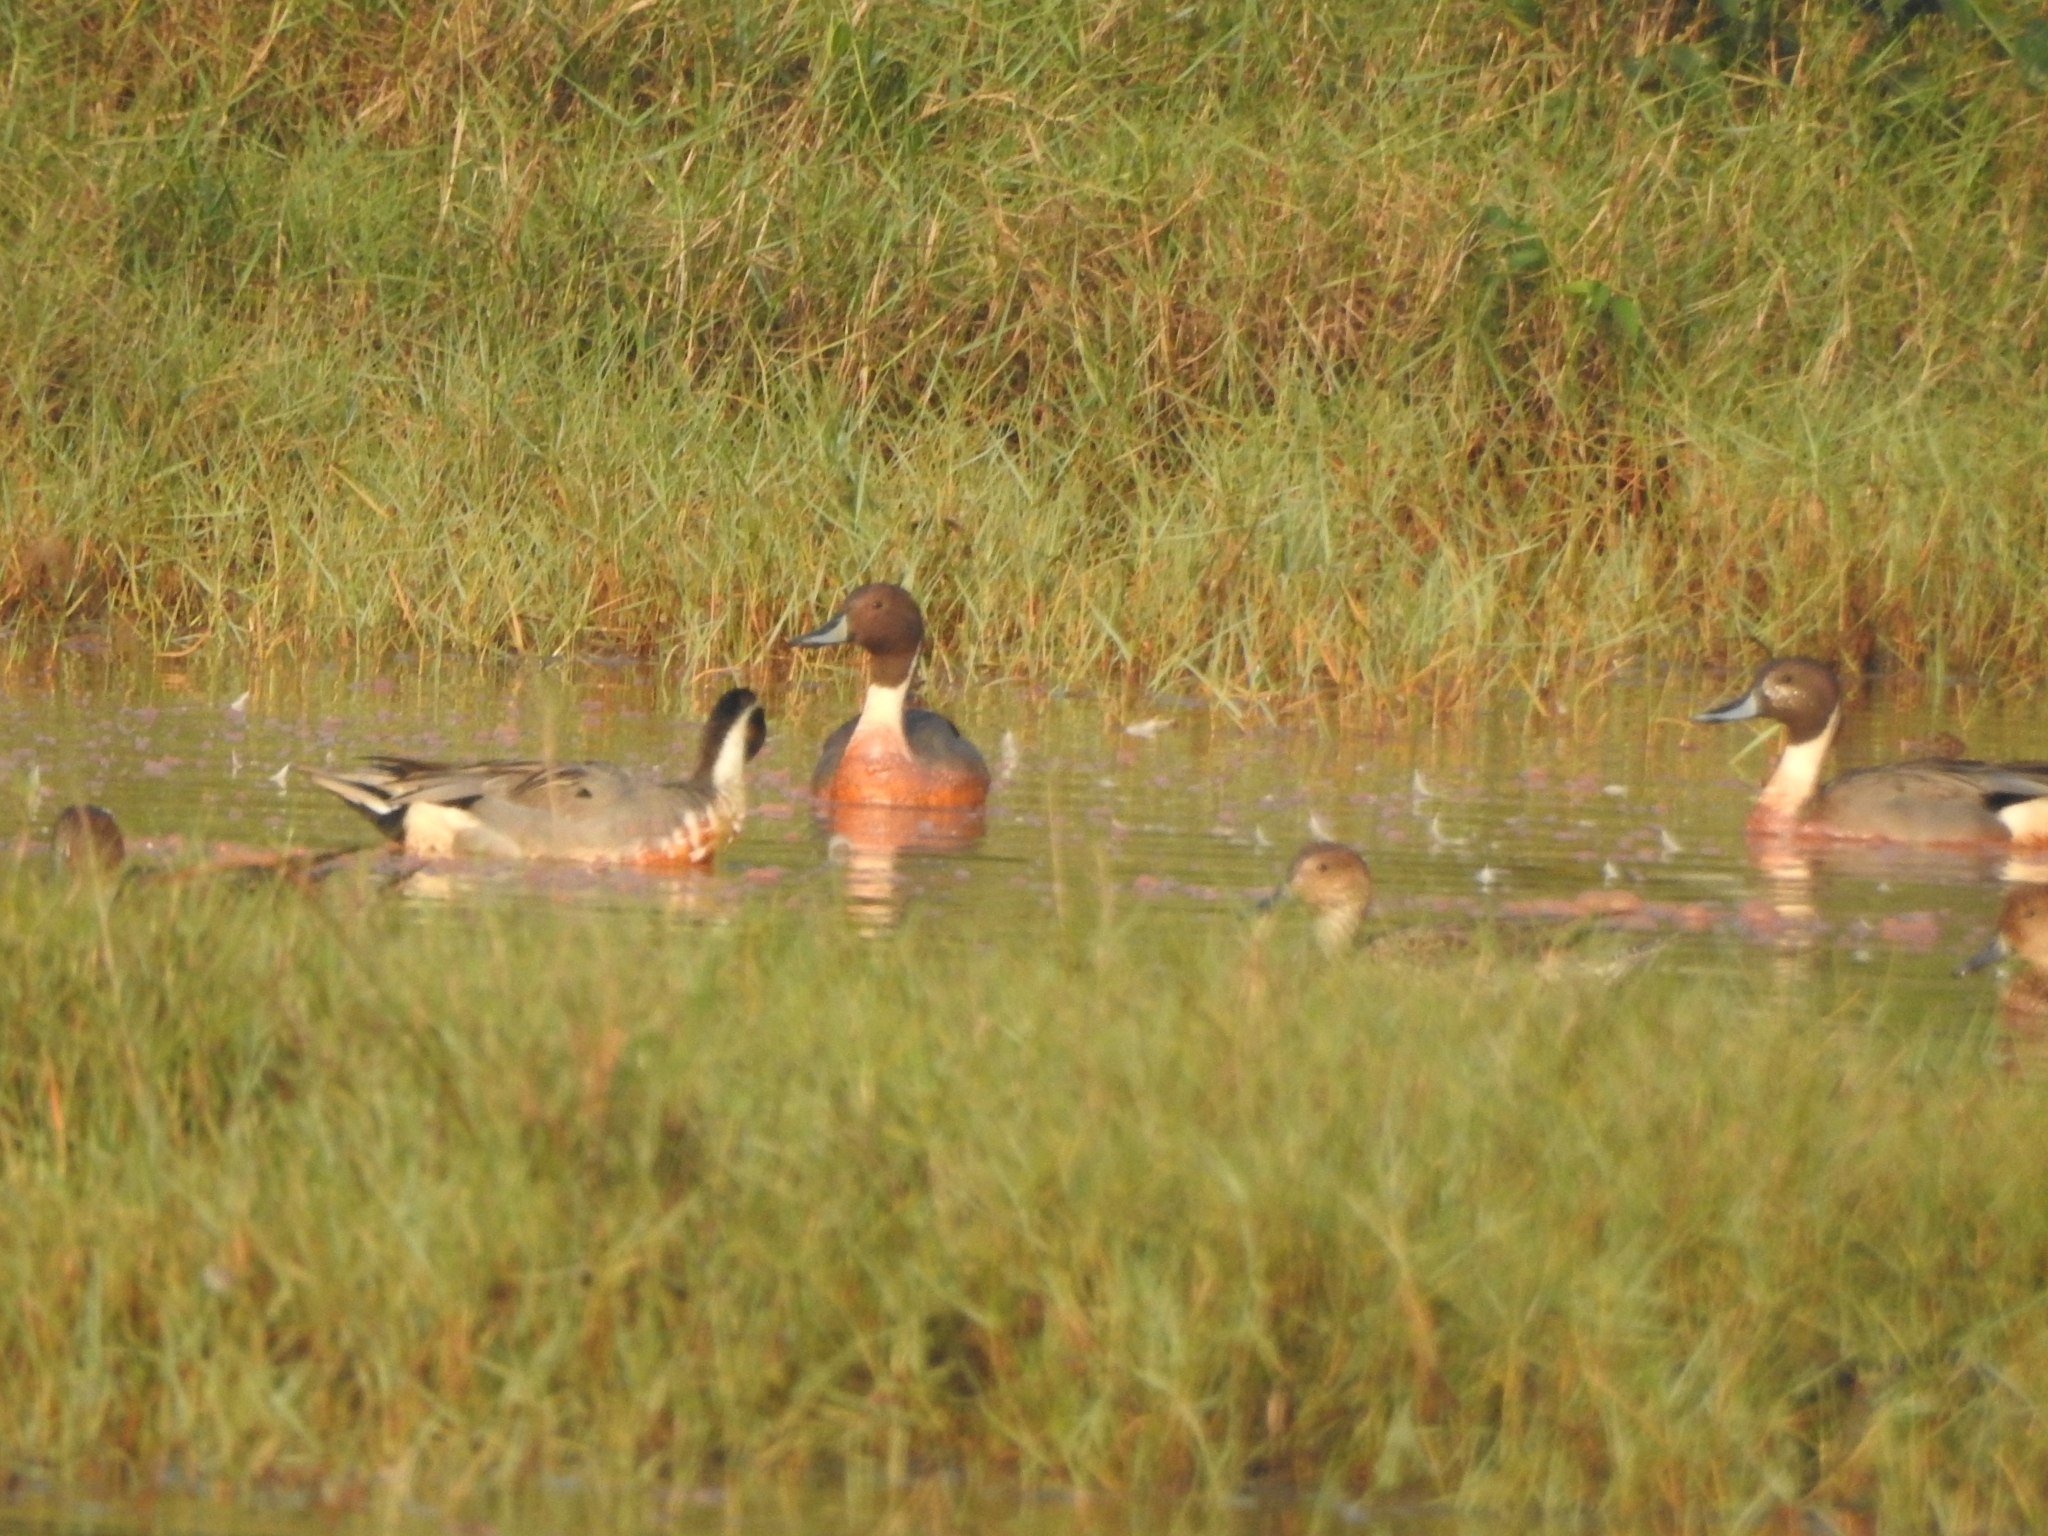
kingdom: Animalia
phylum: Chordata
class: Aves
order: Anseriformes
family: Anatidae
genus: Anas
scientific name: Anas acuta
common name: Northern pintail
